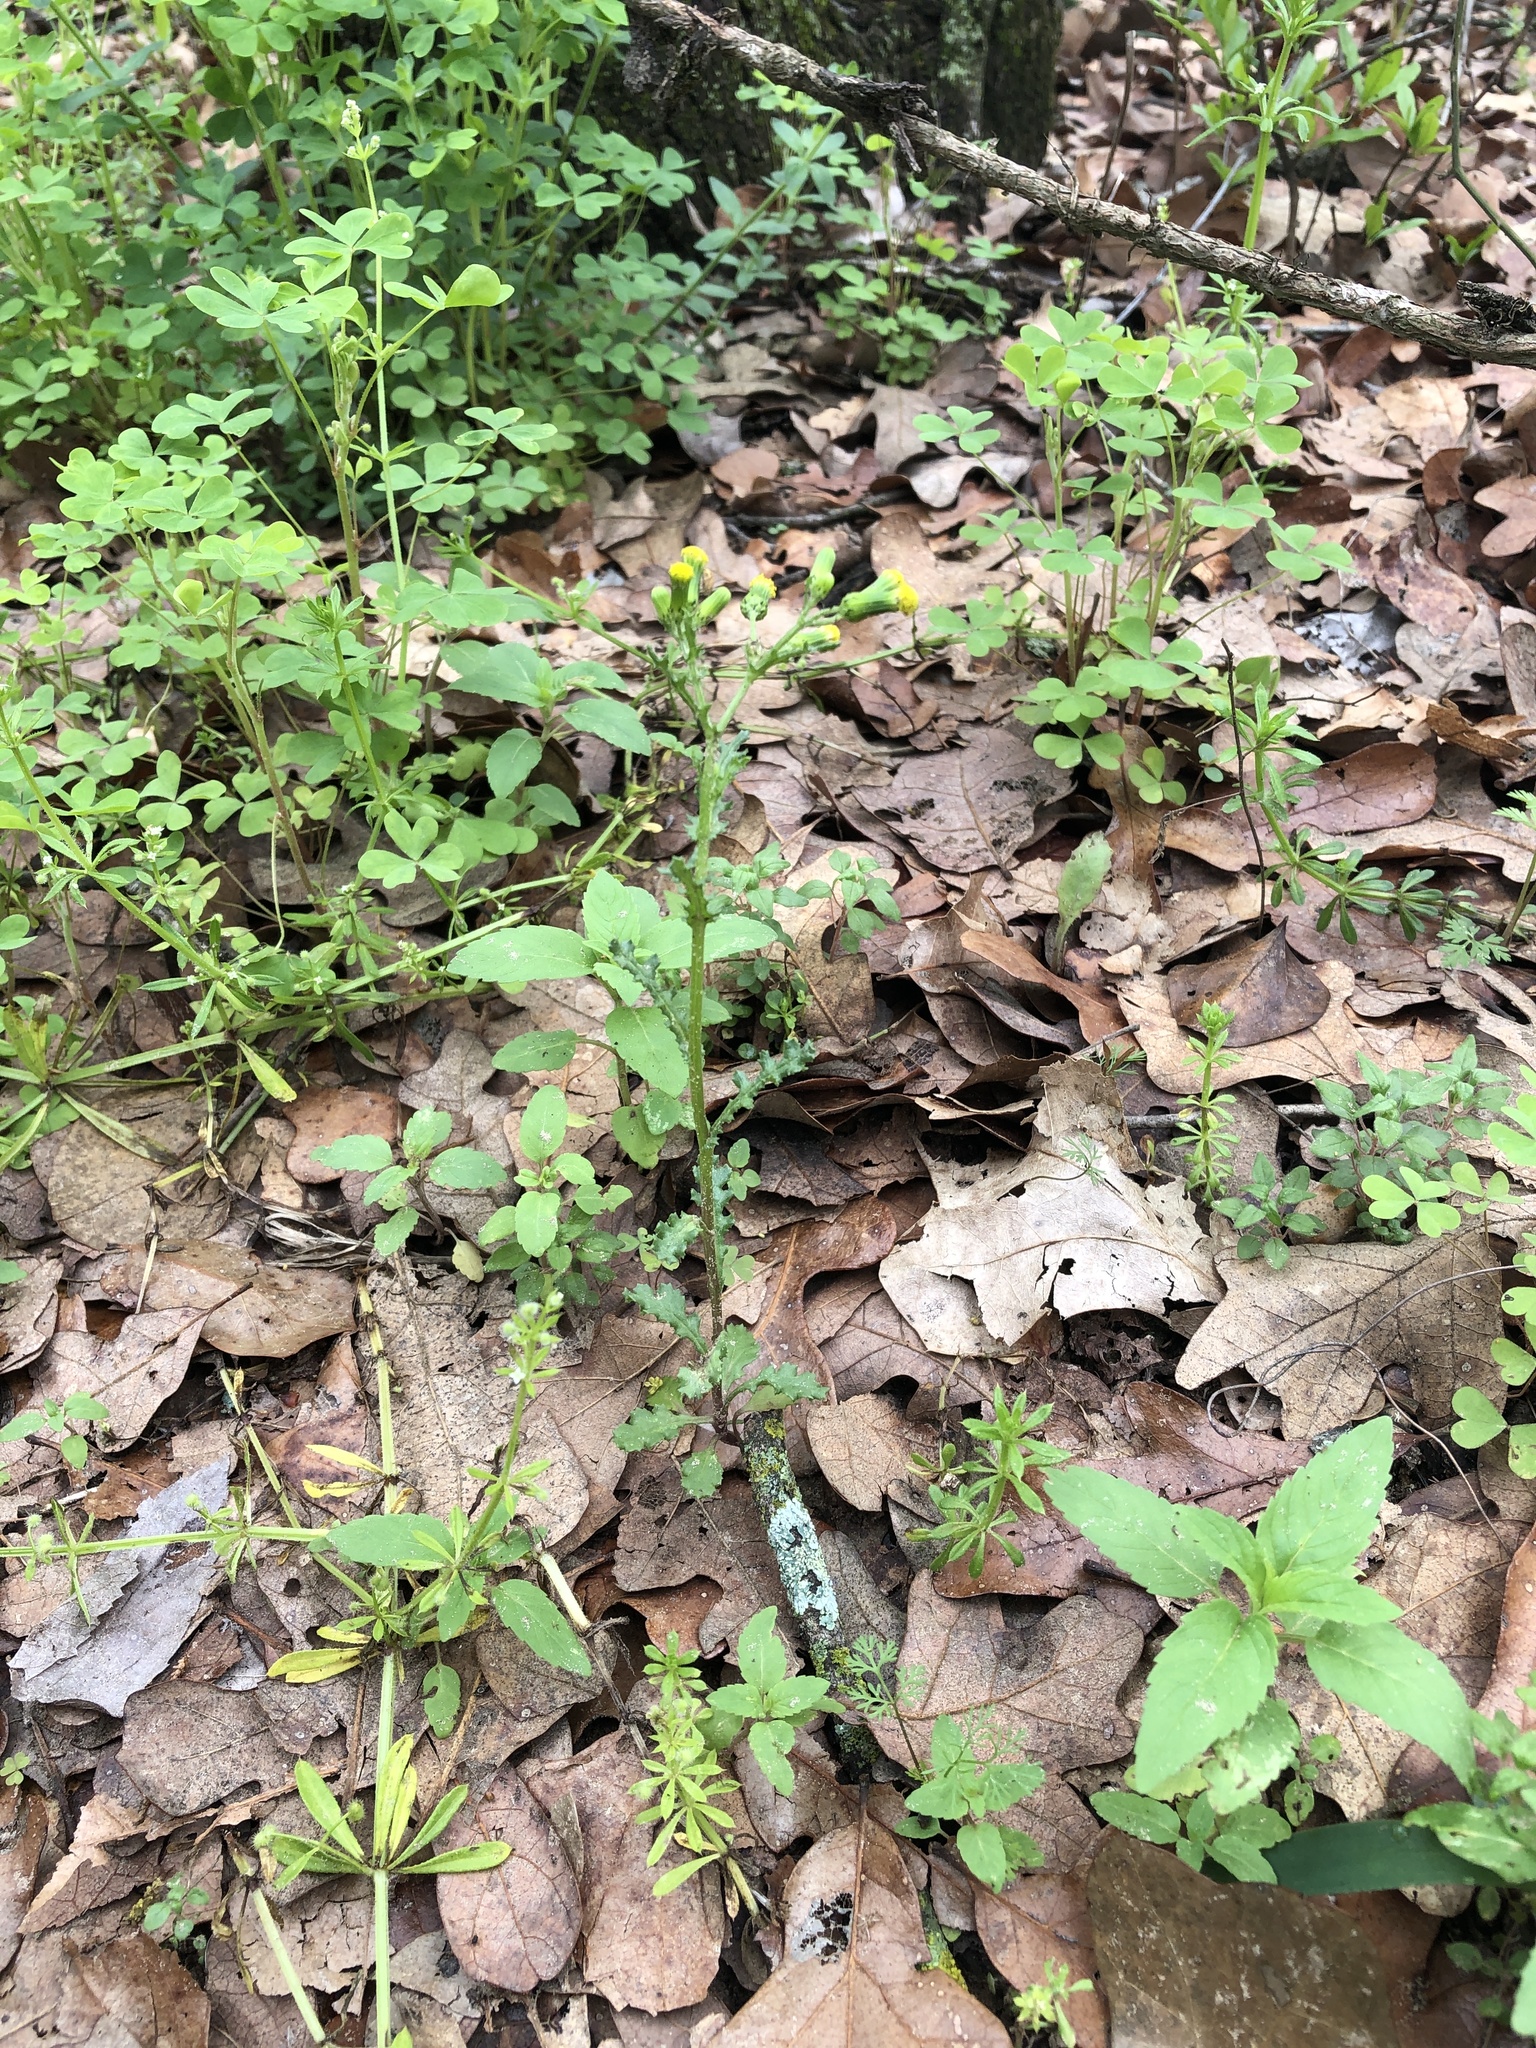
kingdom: Plantae
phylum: Tracheophyta
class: Magnoliopsida
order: Asterales
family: Asteraceae
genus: Senecio
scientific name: Senecio vulgaris
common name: Old-man-in-the-spring
